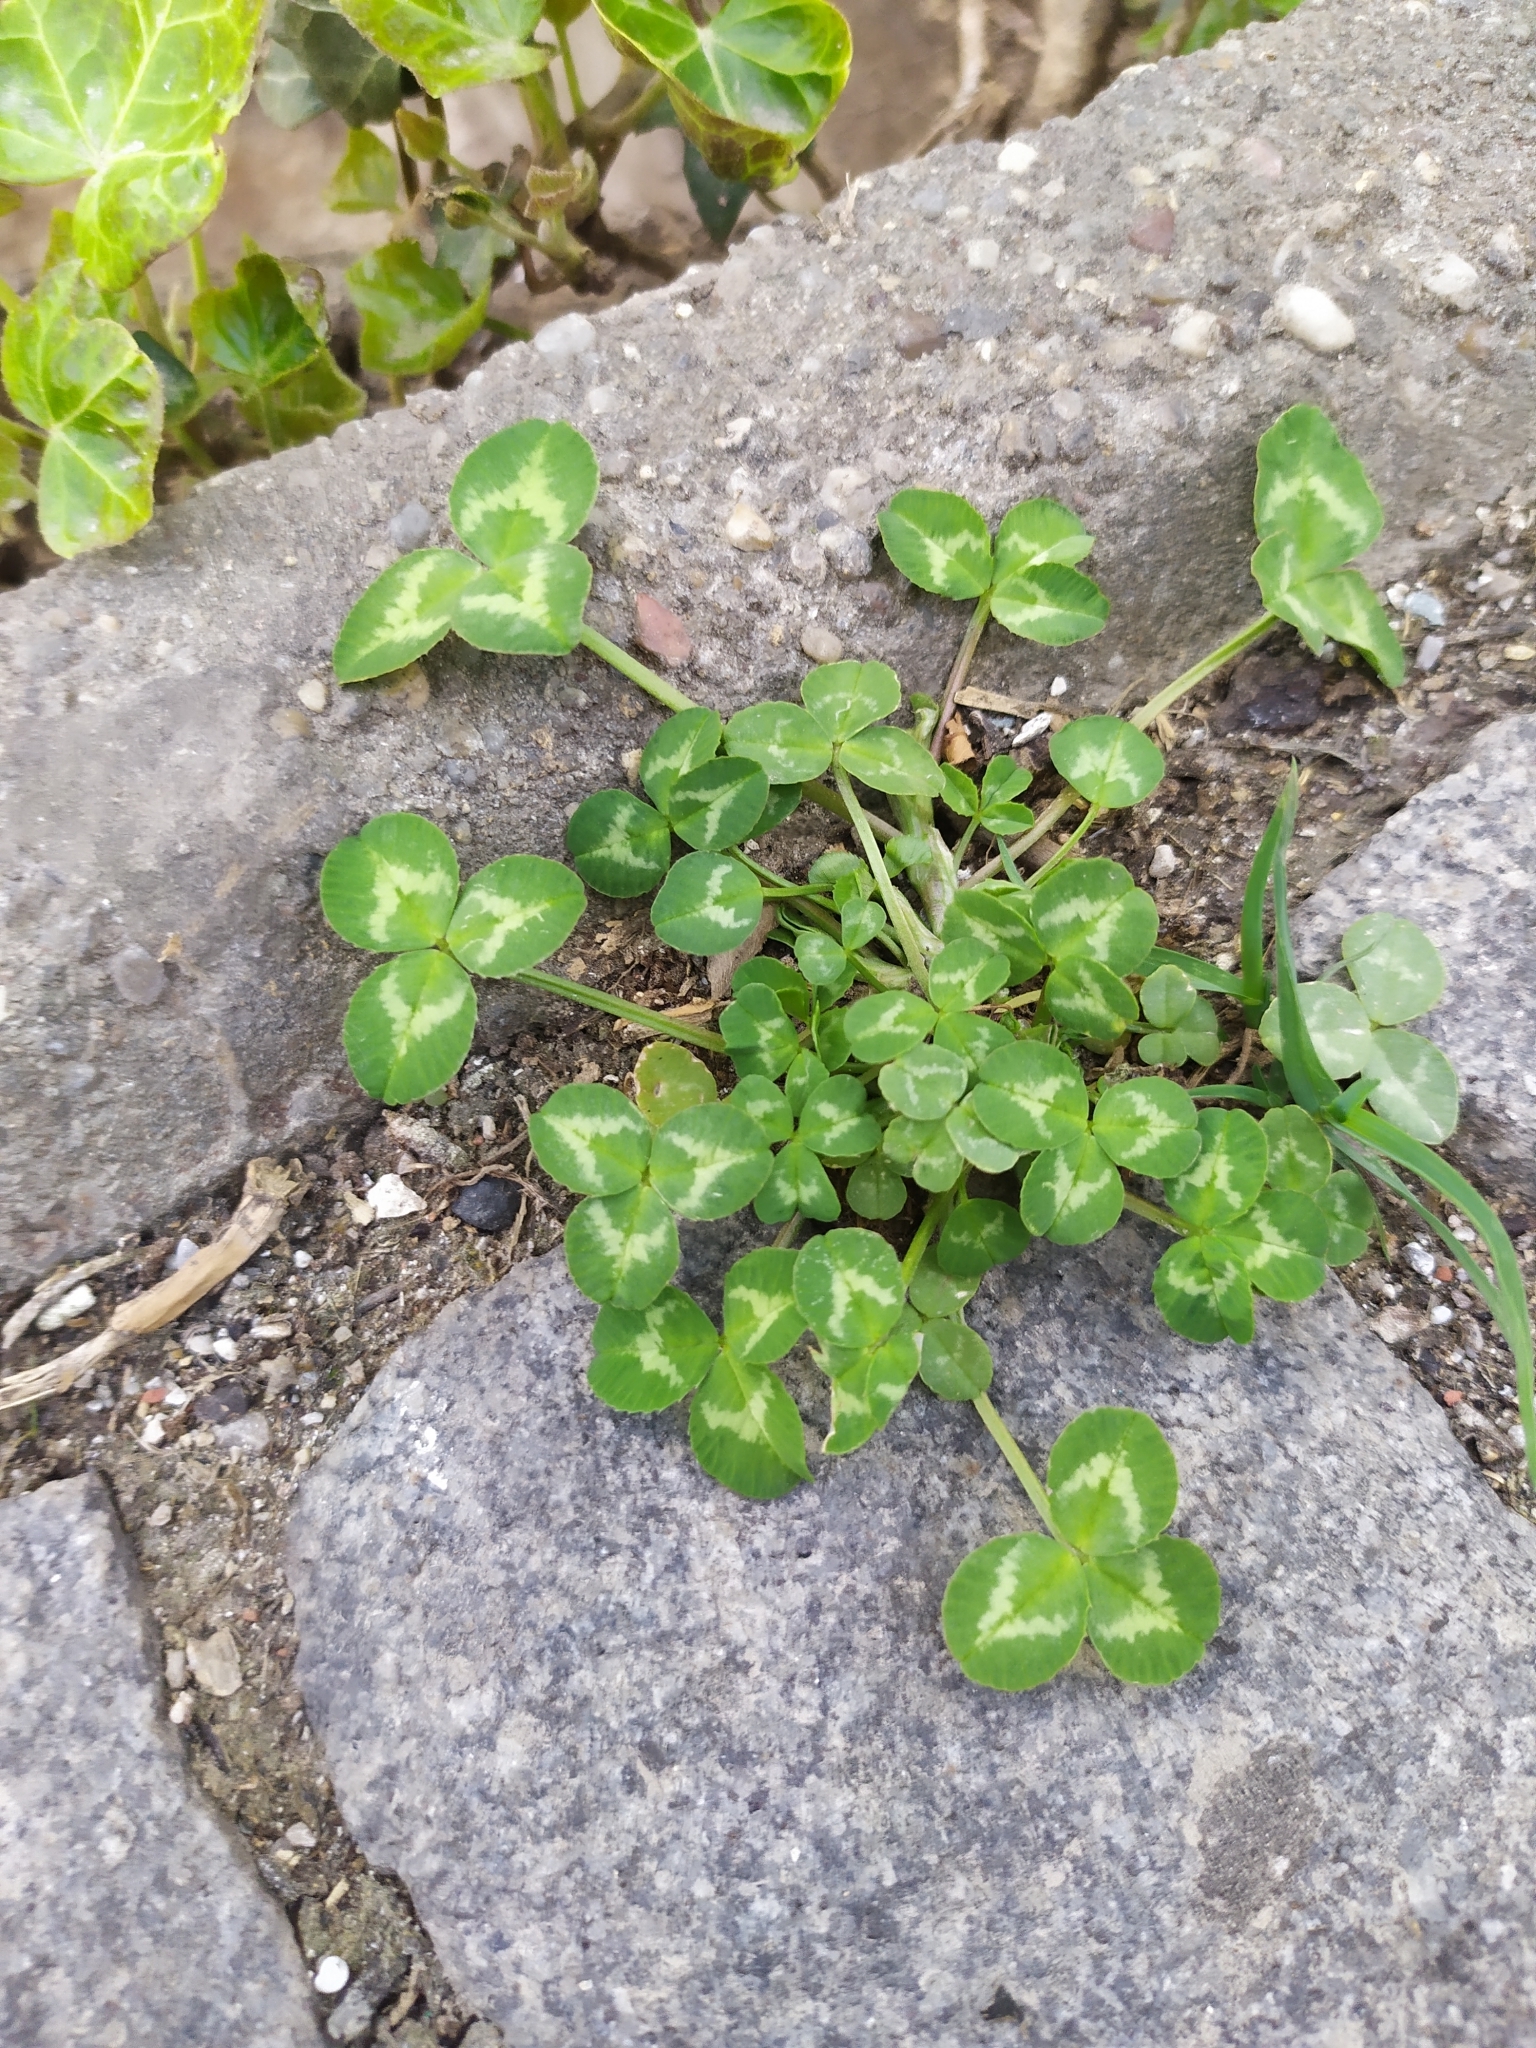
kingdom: Plantae
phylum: Tracheophyta
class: Magnoliopsida
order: Fabales
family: Fabaceae
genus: Trifolium
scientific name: Trifolium repens
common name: White clover
